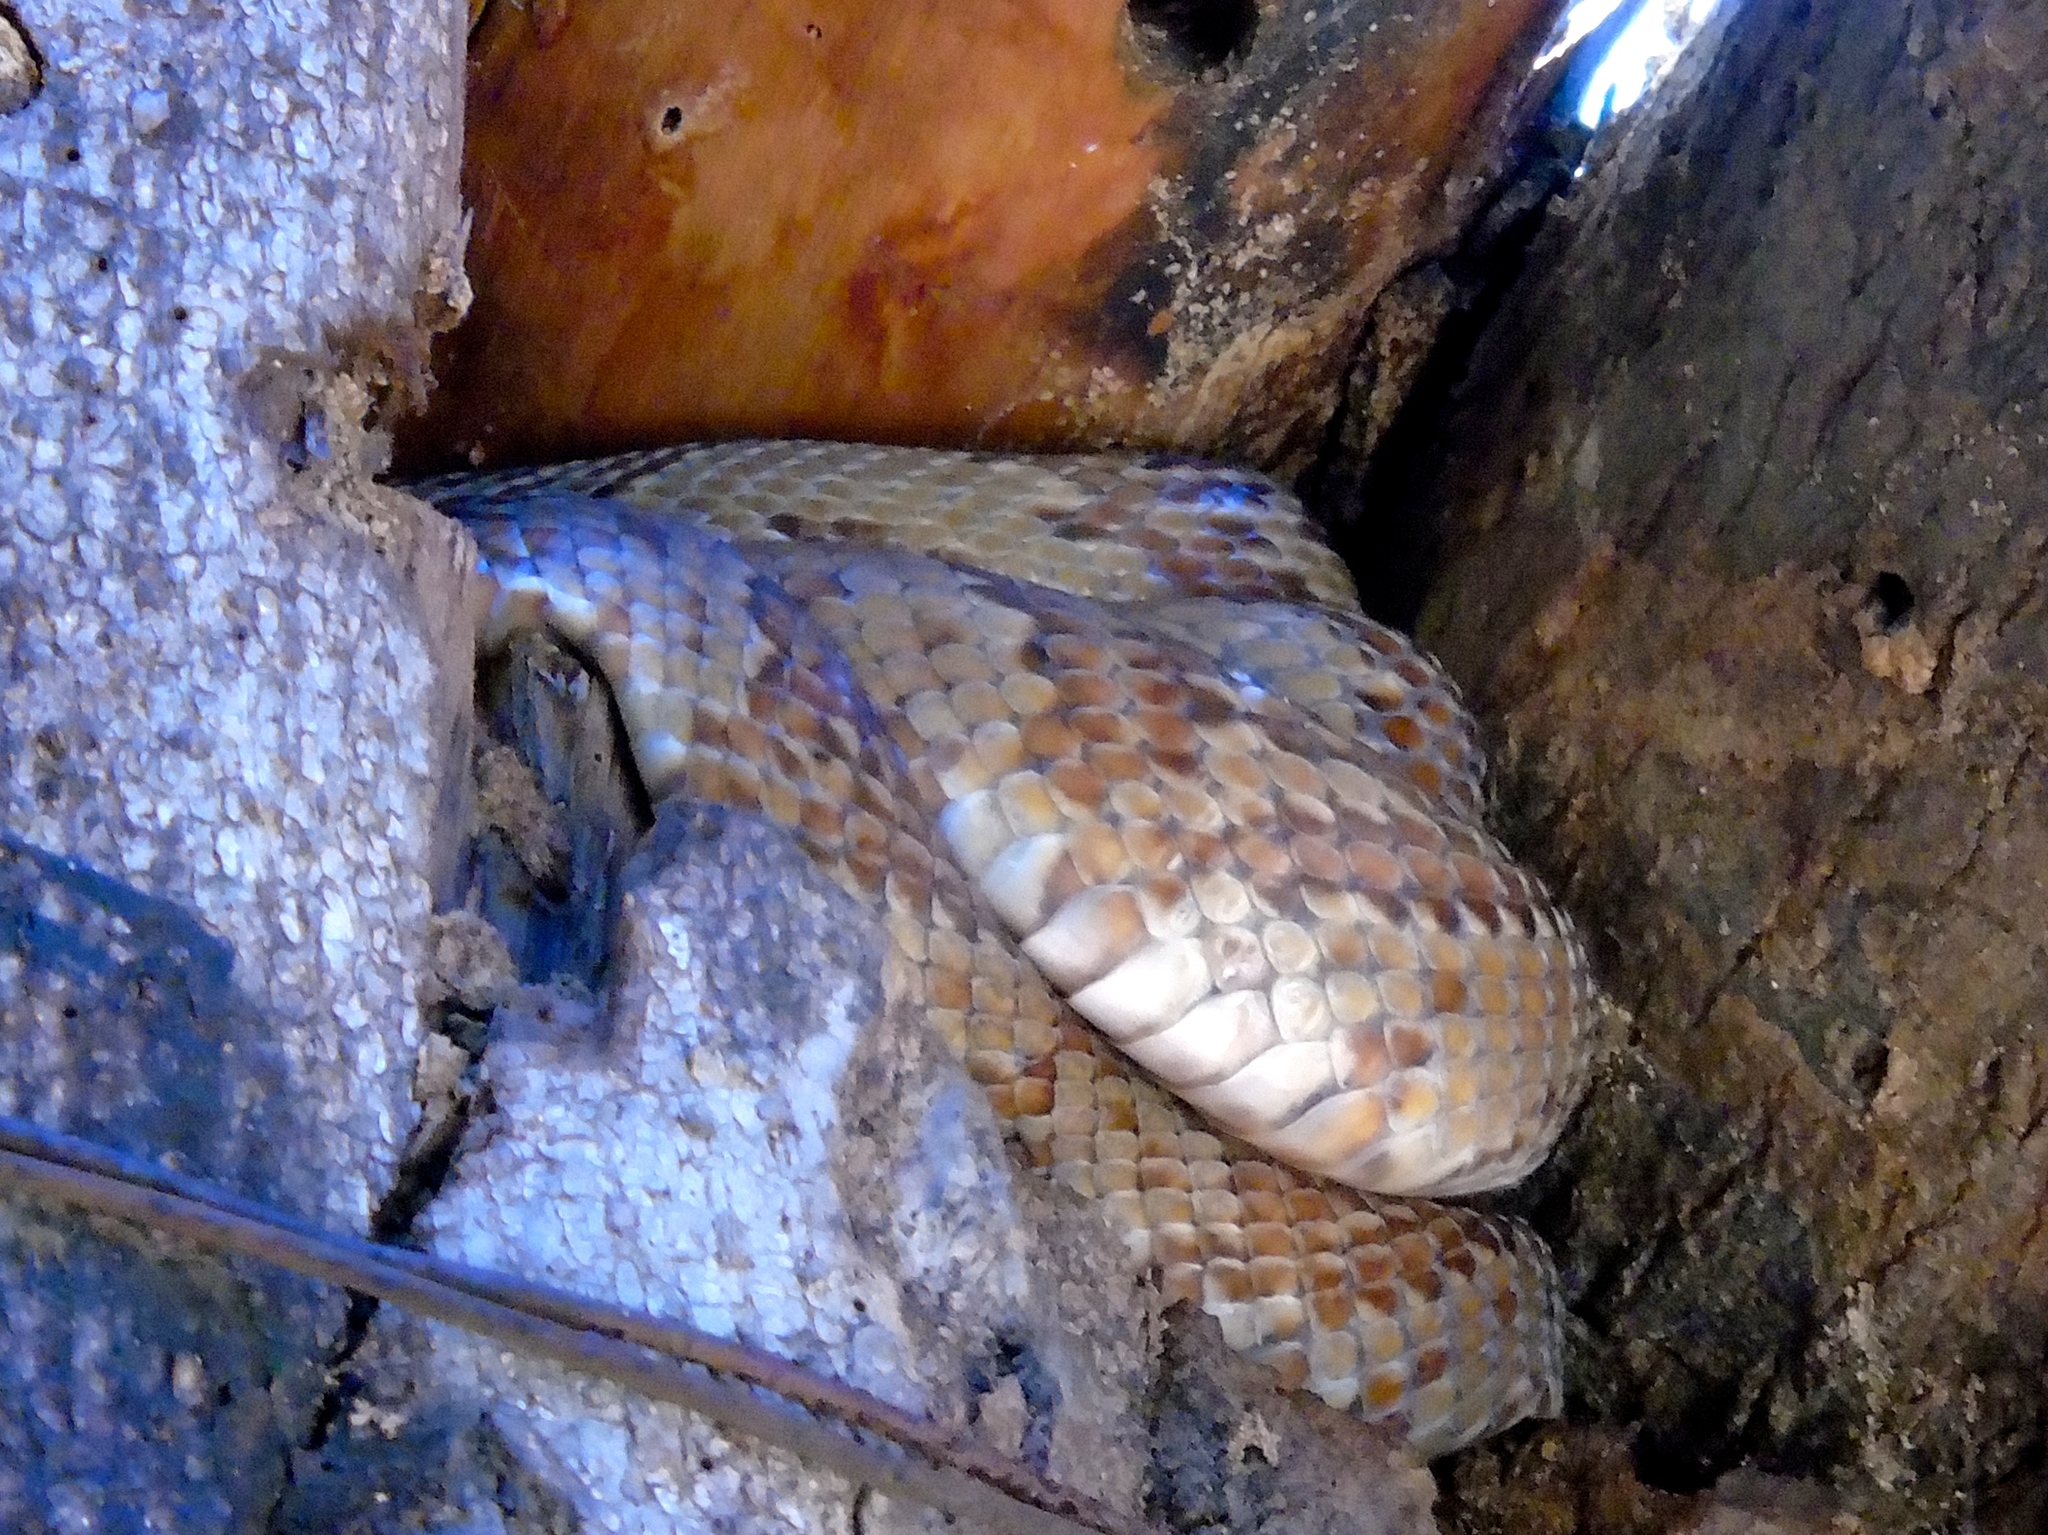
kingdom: Animalia
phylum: Chordata
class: Squamata
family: Colubridae
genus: Trimorphodon
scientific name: Trimorphodon paucimaculatus
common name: Sinaloan lyresnake
